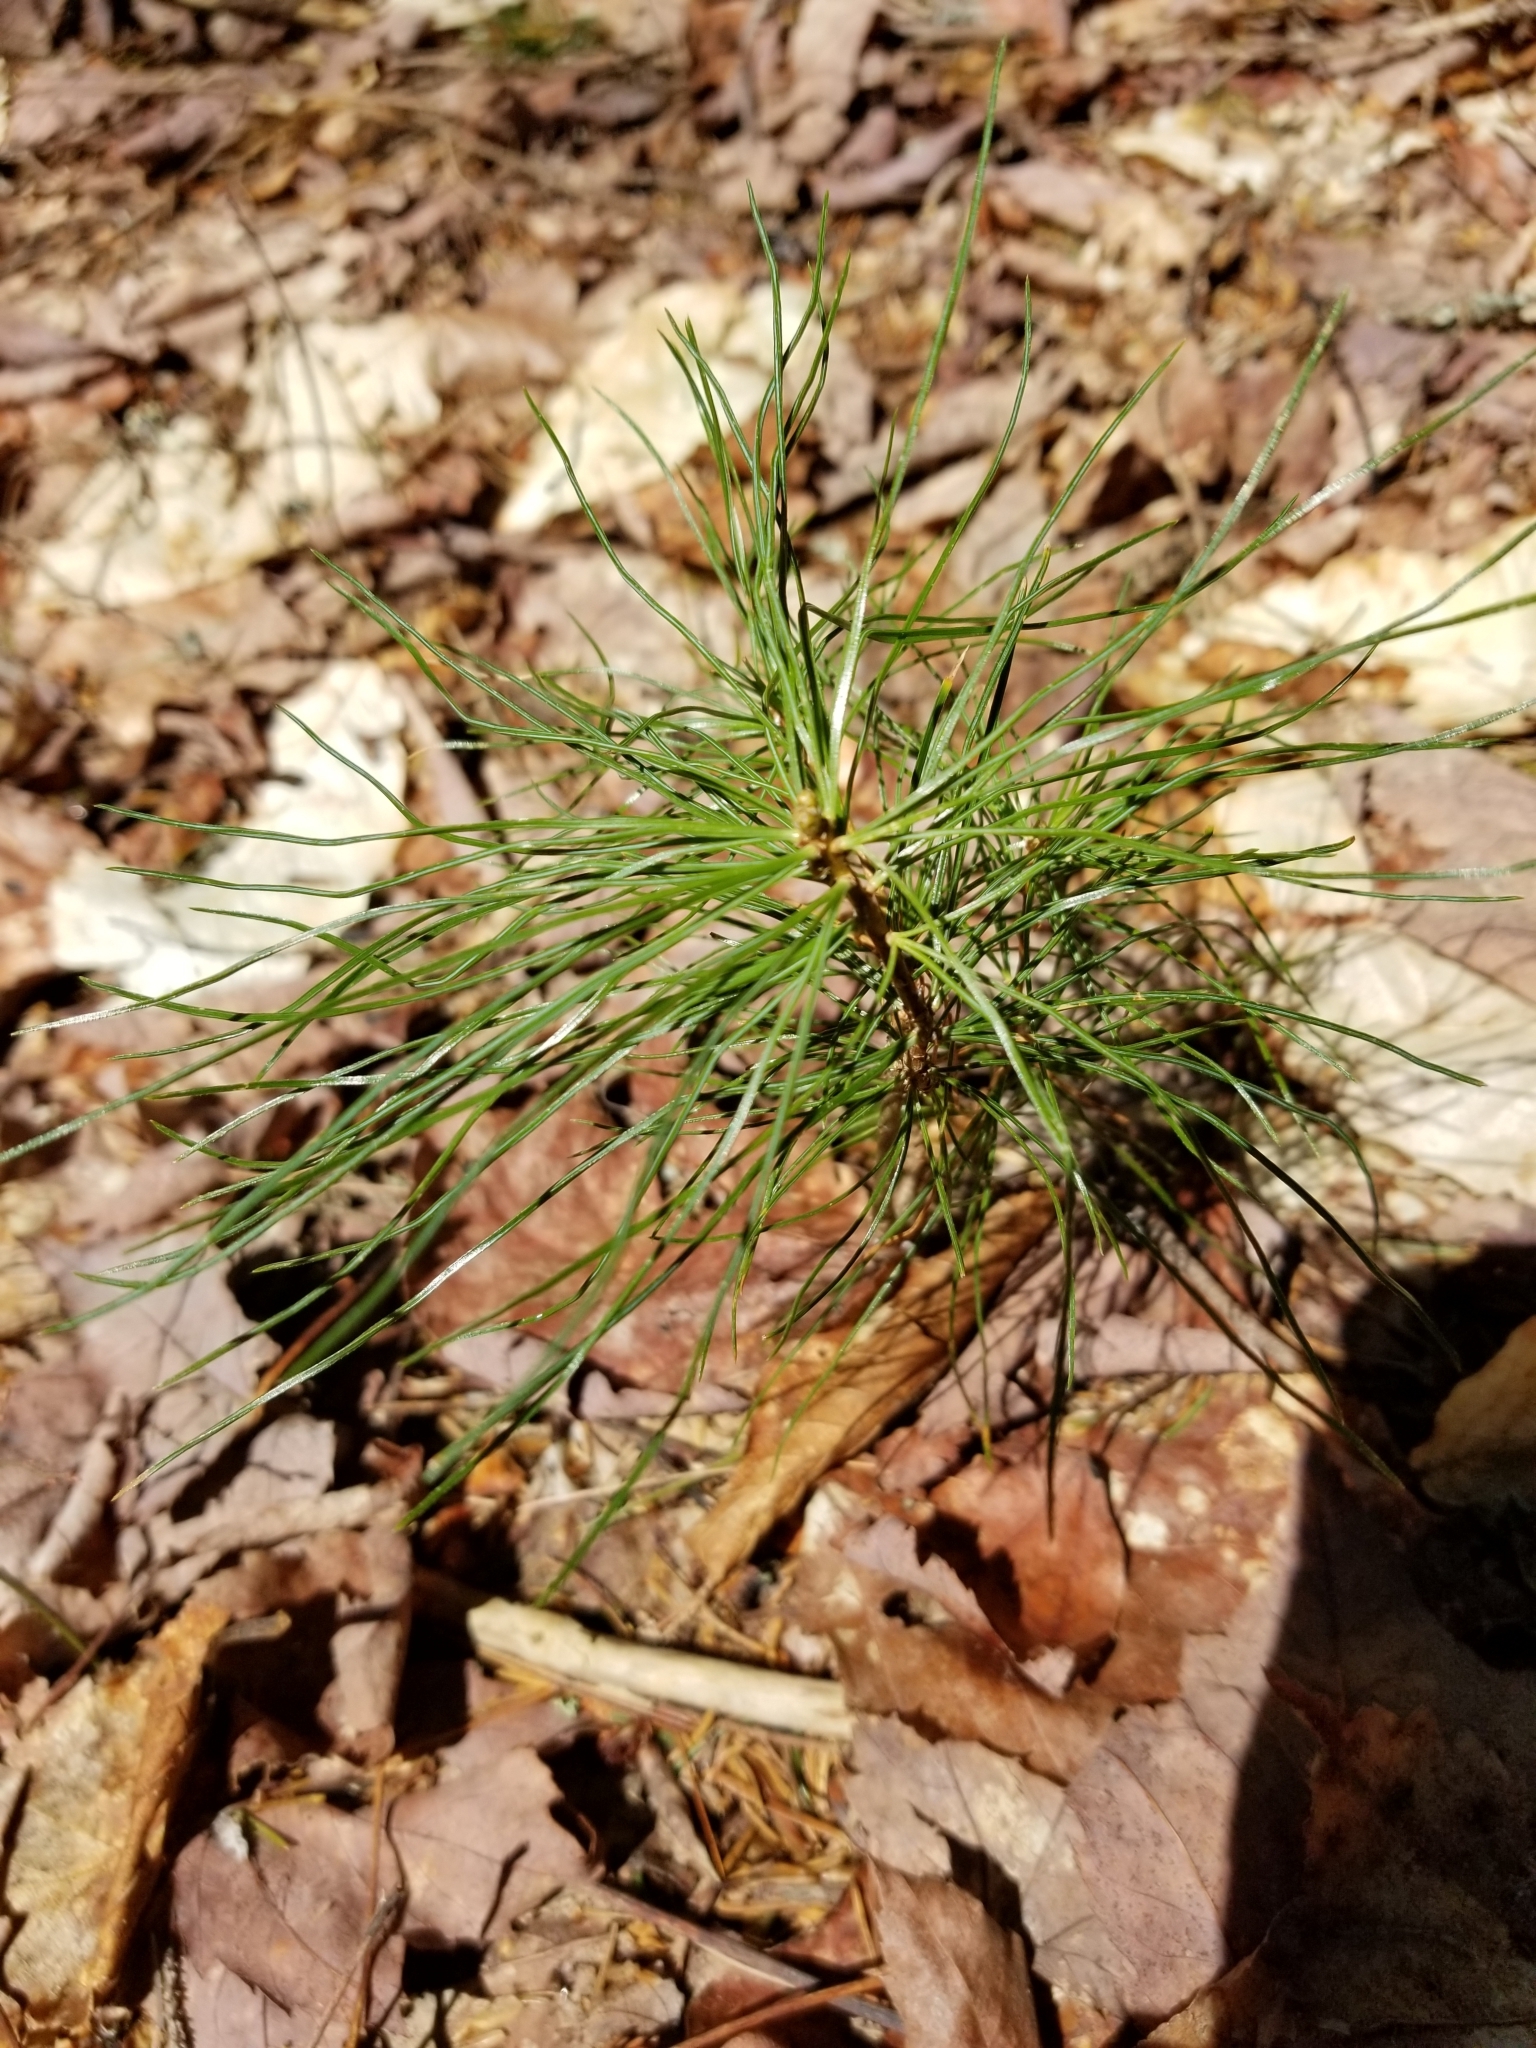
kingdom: Plantae
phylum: Tracheophyta
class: Pinopsida
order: Pinales
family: Pinaceae
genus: Pinus
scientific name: Pinus strobus
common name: Weymouth pine
